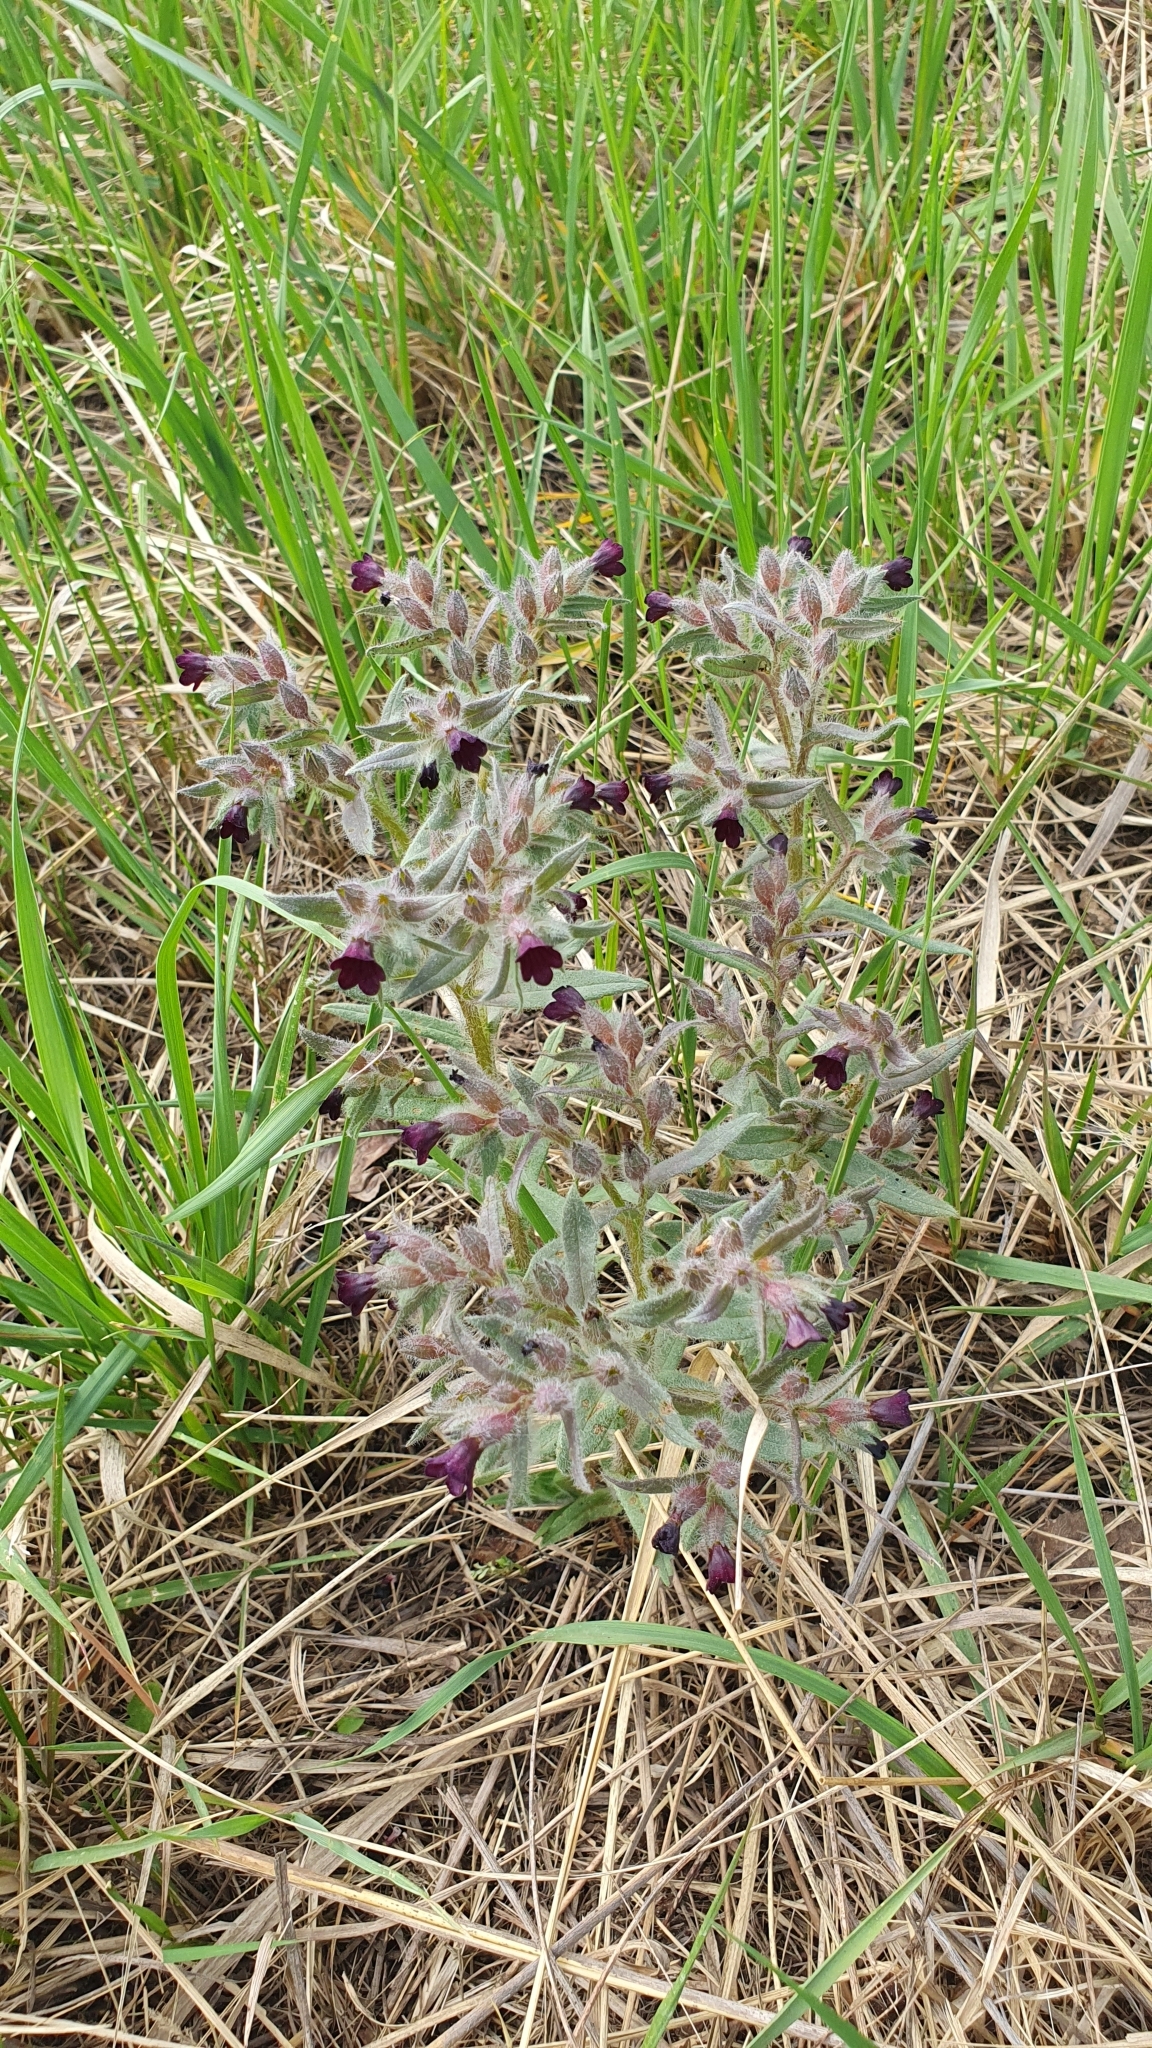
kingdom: Plantae
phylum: Tracheophyta
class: Magnoliopsida
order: Boraginales
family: Boraginaceae
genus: Nonea
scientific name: Nonea pulla
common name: Brown nonea
